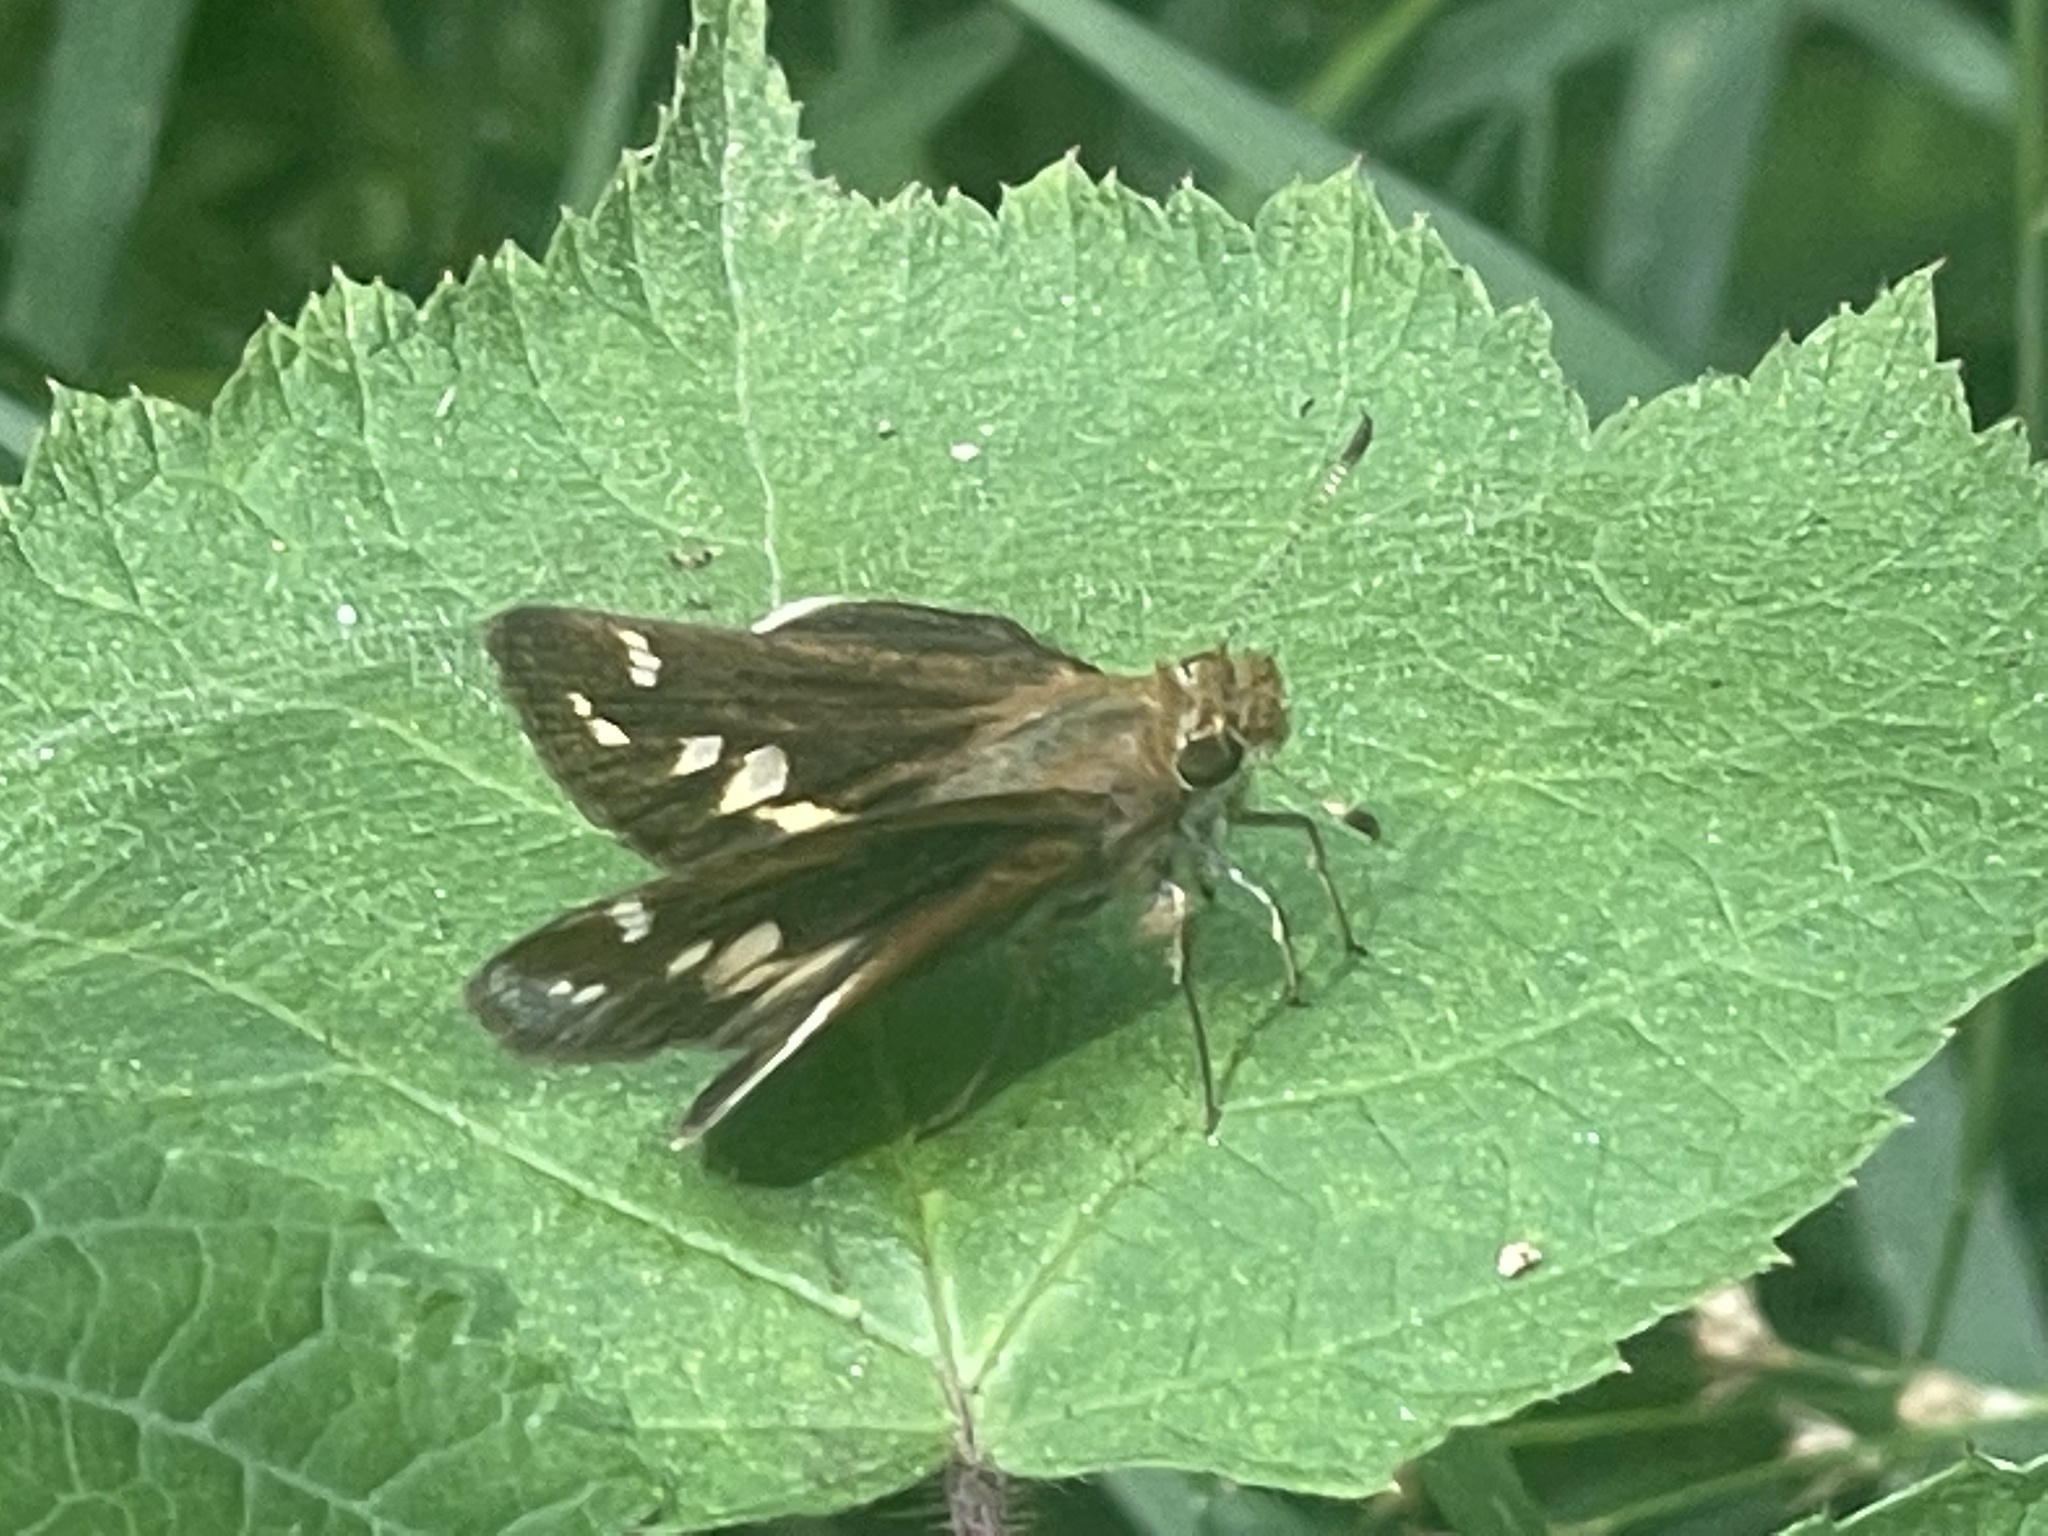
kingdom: Animalia
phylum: Arthropoda
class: Insecta
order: Lepidoptera
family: Hesperiidae
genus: Lon
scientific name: Lon zabulon
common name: Zabulon skipper
